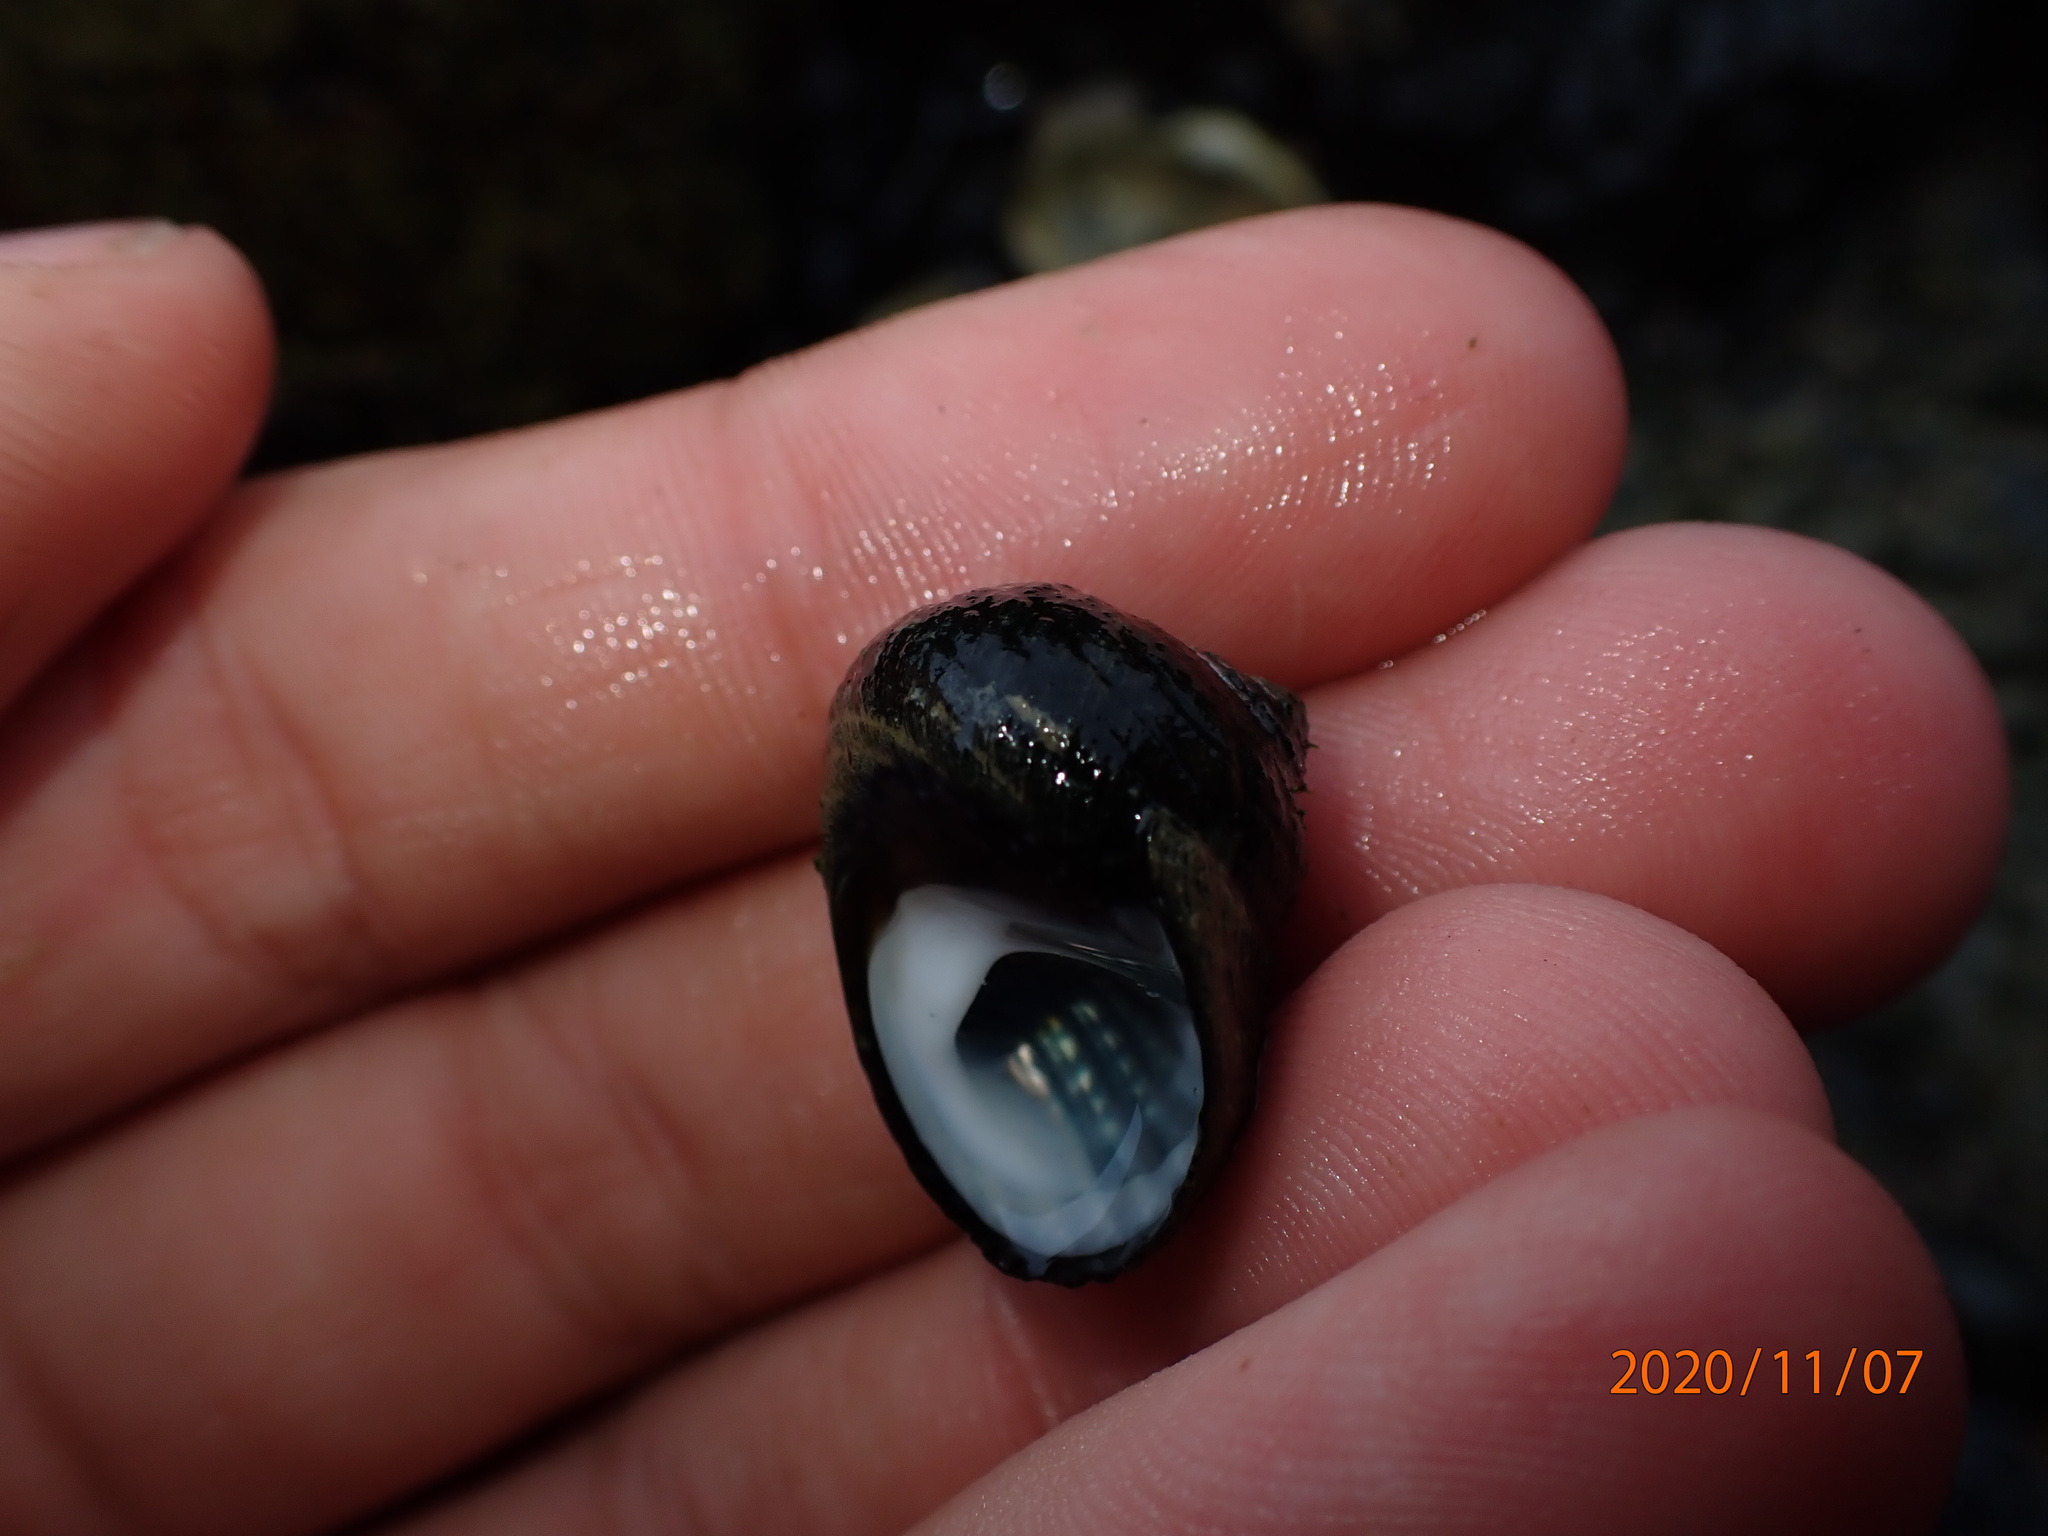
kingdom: Animalia
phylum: Mollusca
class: Gastropoda
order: Trochida
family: Trochidae
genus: Diloma
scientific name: Diloma aethiops
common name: Scorched monodont
